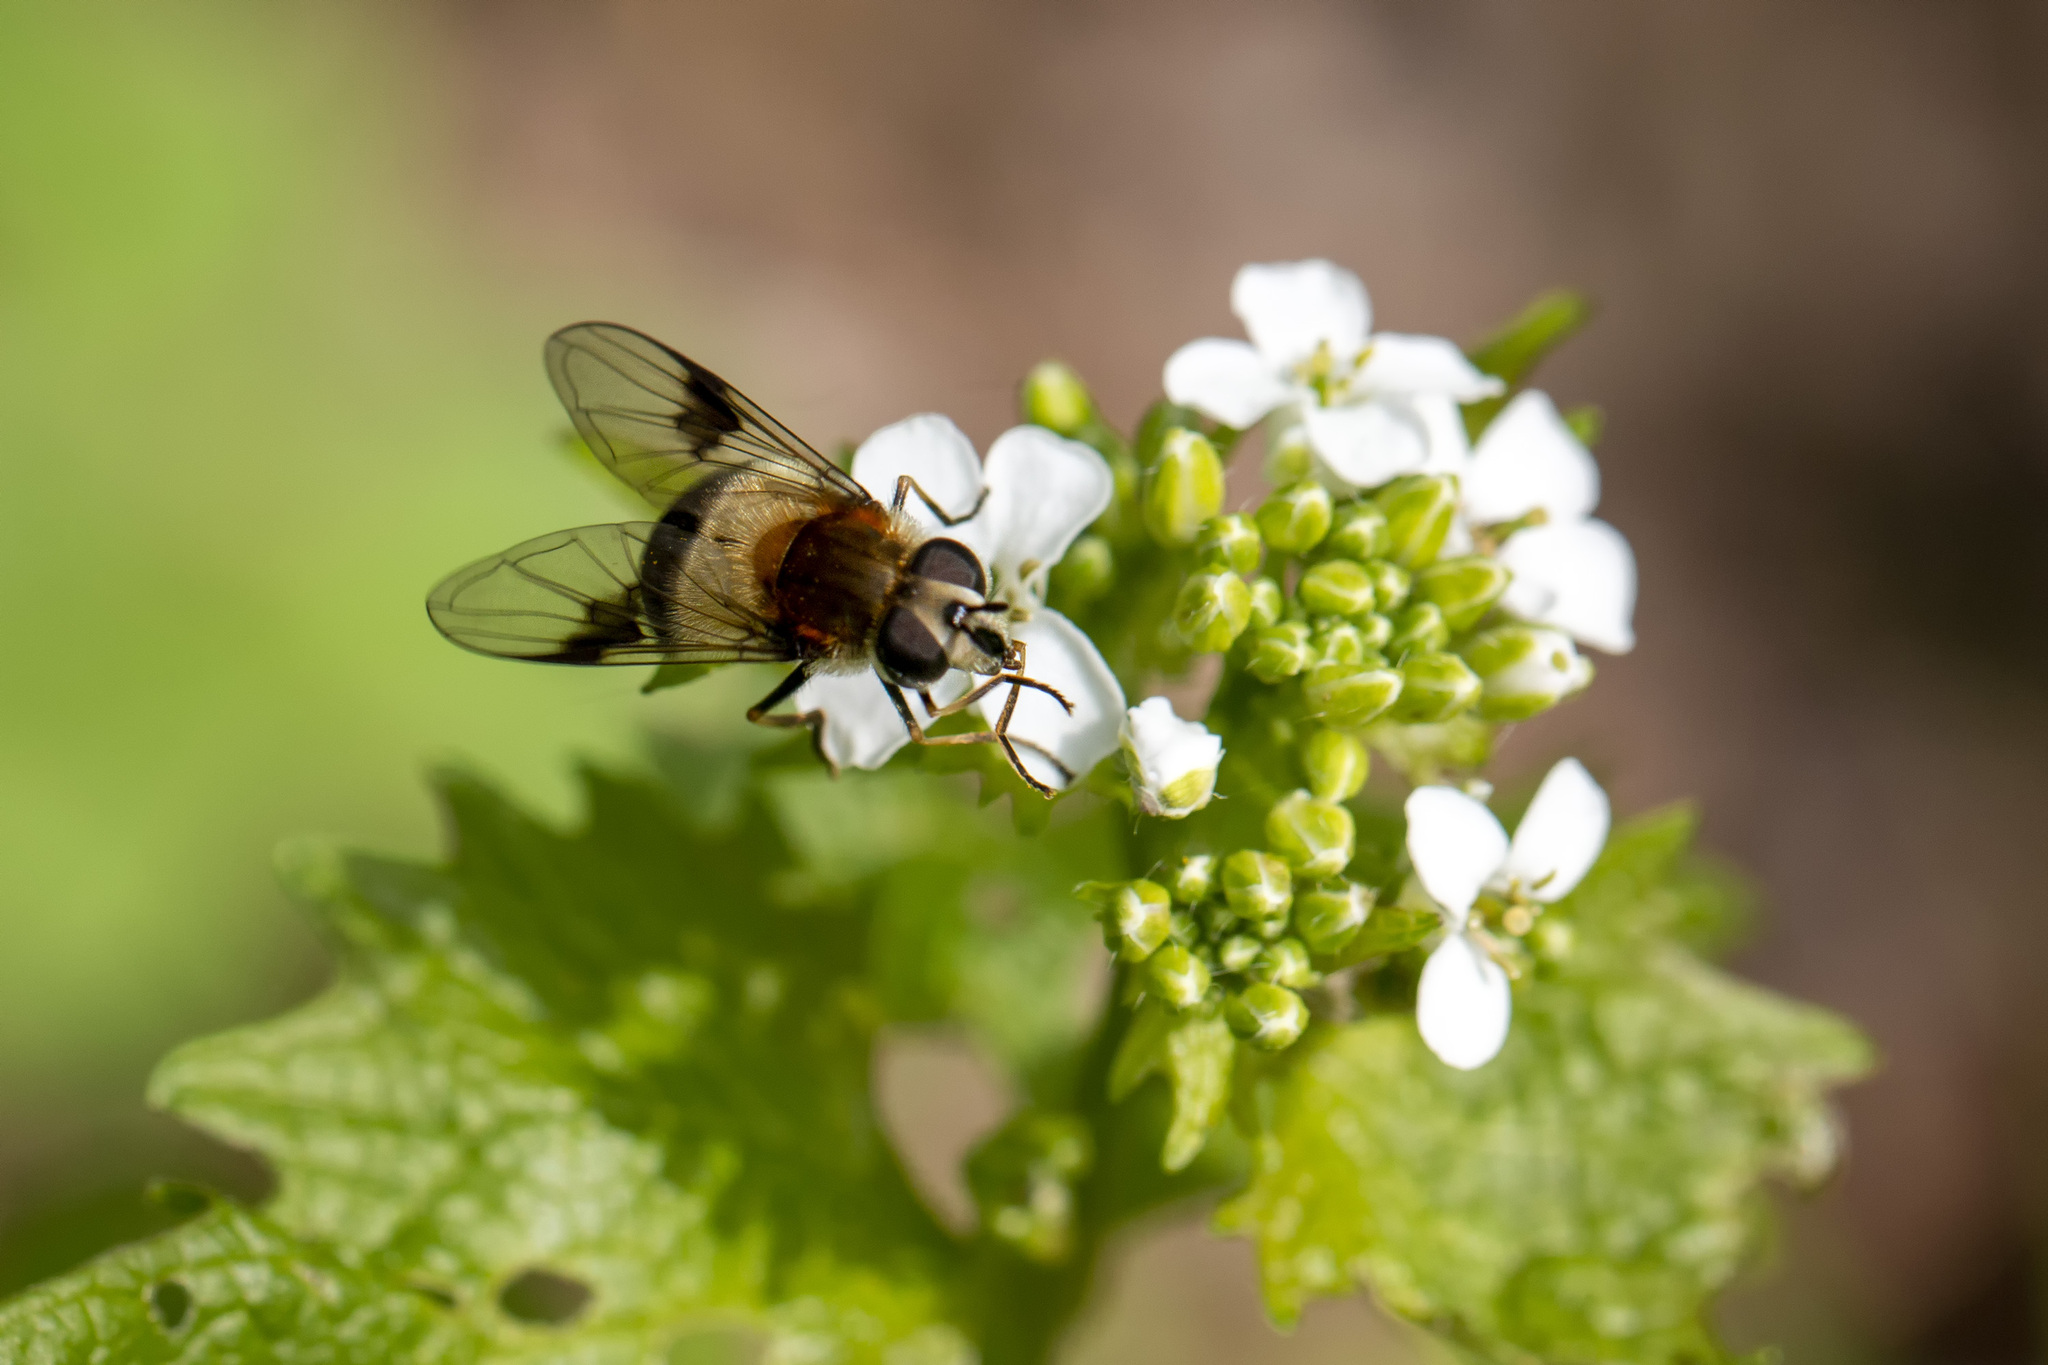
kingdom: Animalia
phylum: Arthropoda
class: Insecta
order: Diptera
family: Syrphidae
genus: Leucozona
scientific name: Leucozona lucorum
